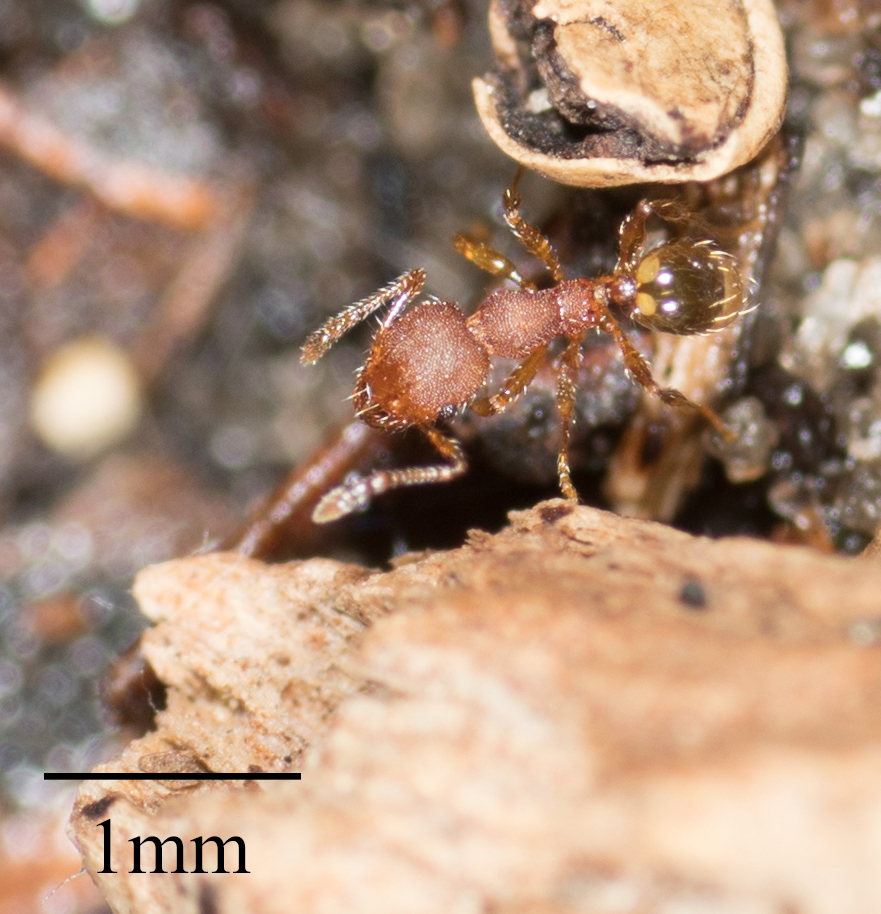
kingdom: Animalia
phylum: Arthropoda
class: Insecta
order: Hymenoptera
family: Formicidae
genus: Pheidole
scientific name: Pheidole navigans
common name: Navigating big-headed ant
